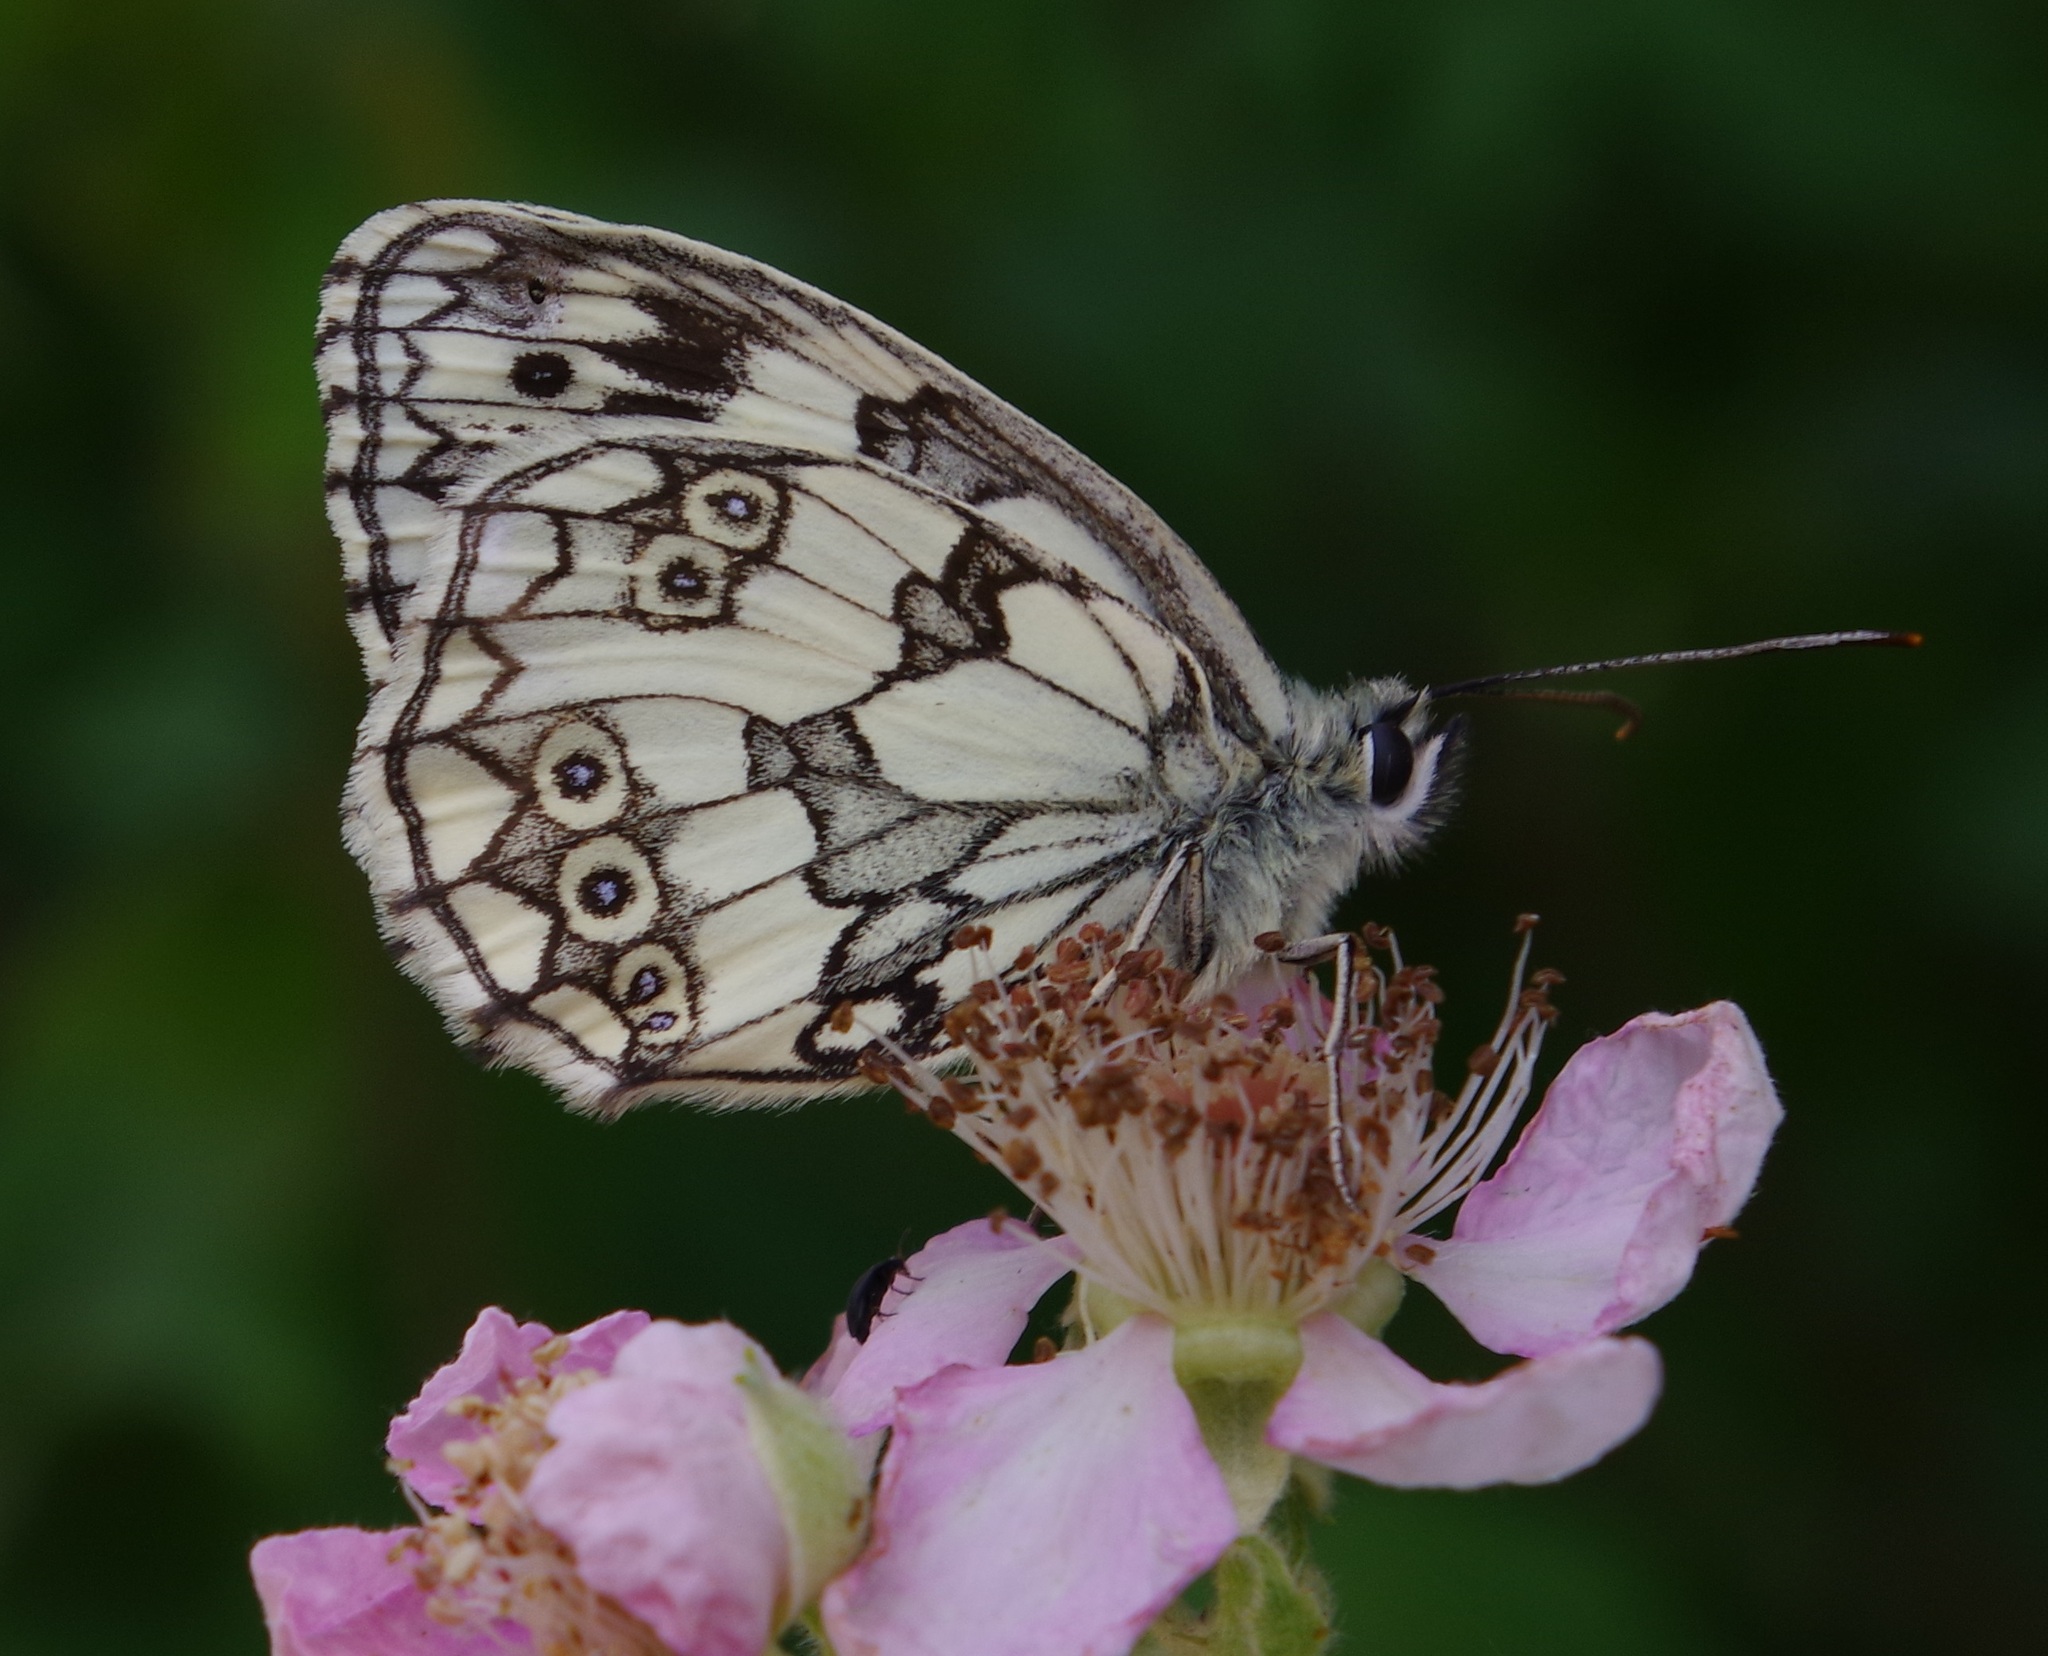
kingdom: Animalia
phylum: Arthropoda
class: Insecta
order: Lepidoptera
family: Nymphalidae
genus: Melanargia
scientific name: Melanargia galathea
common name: Marbled white
